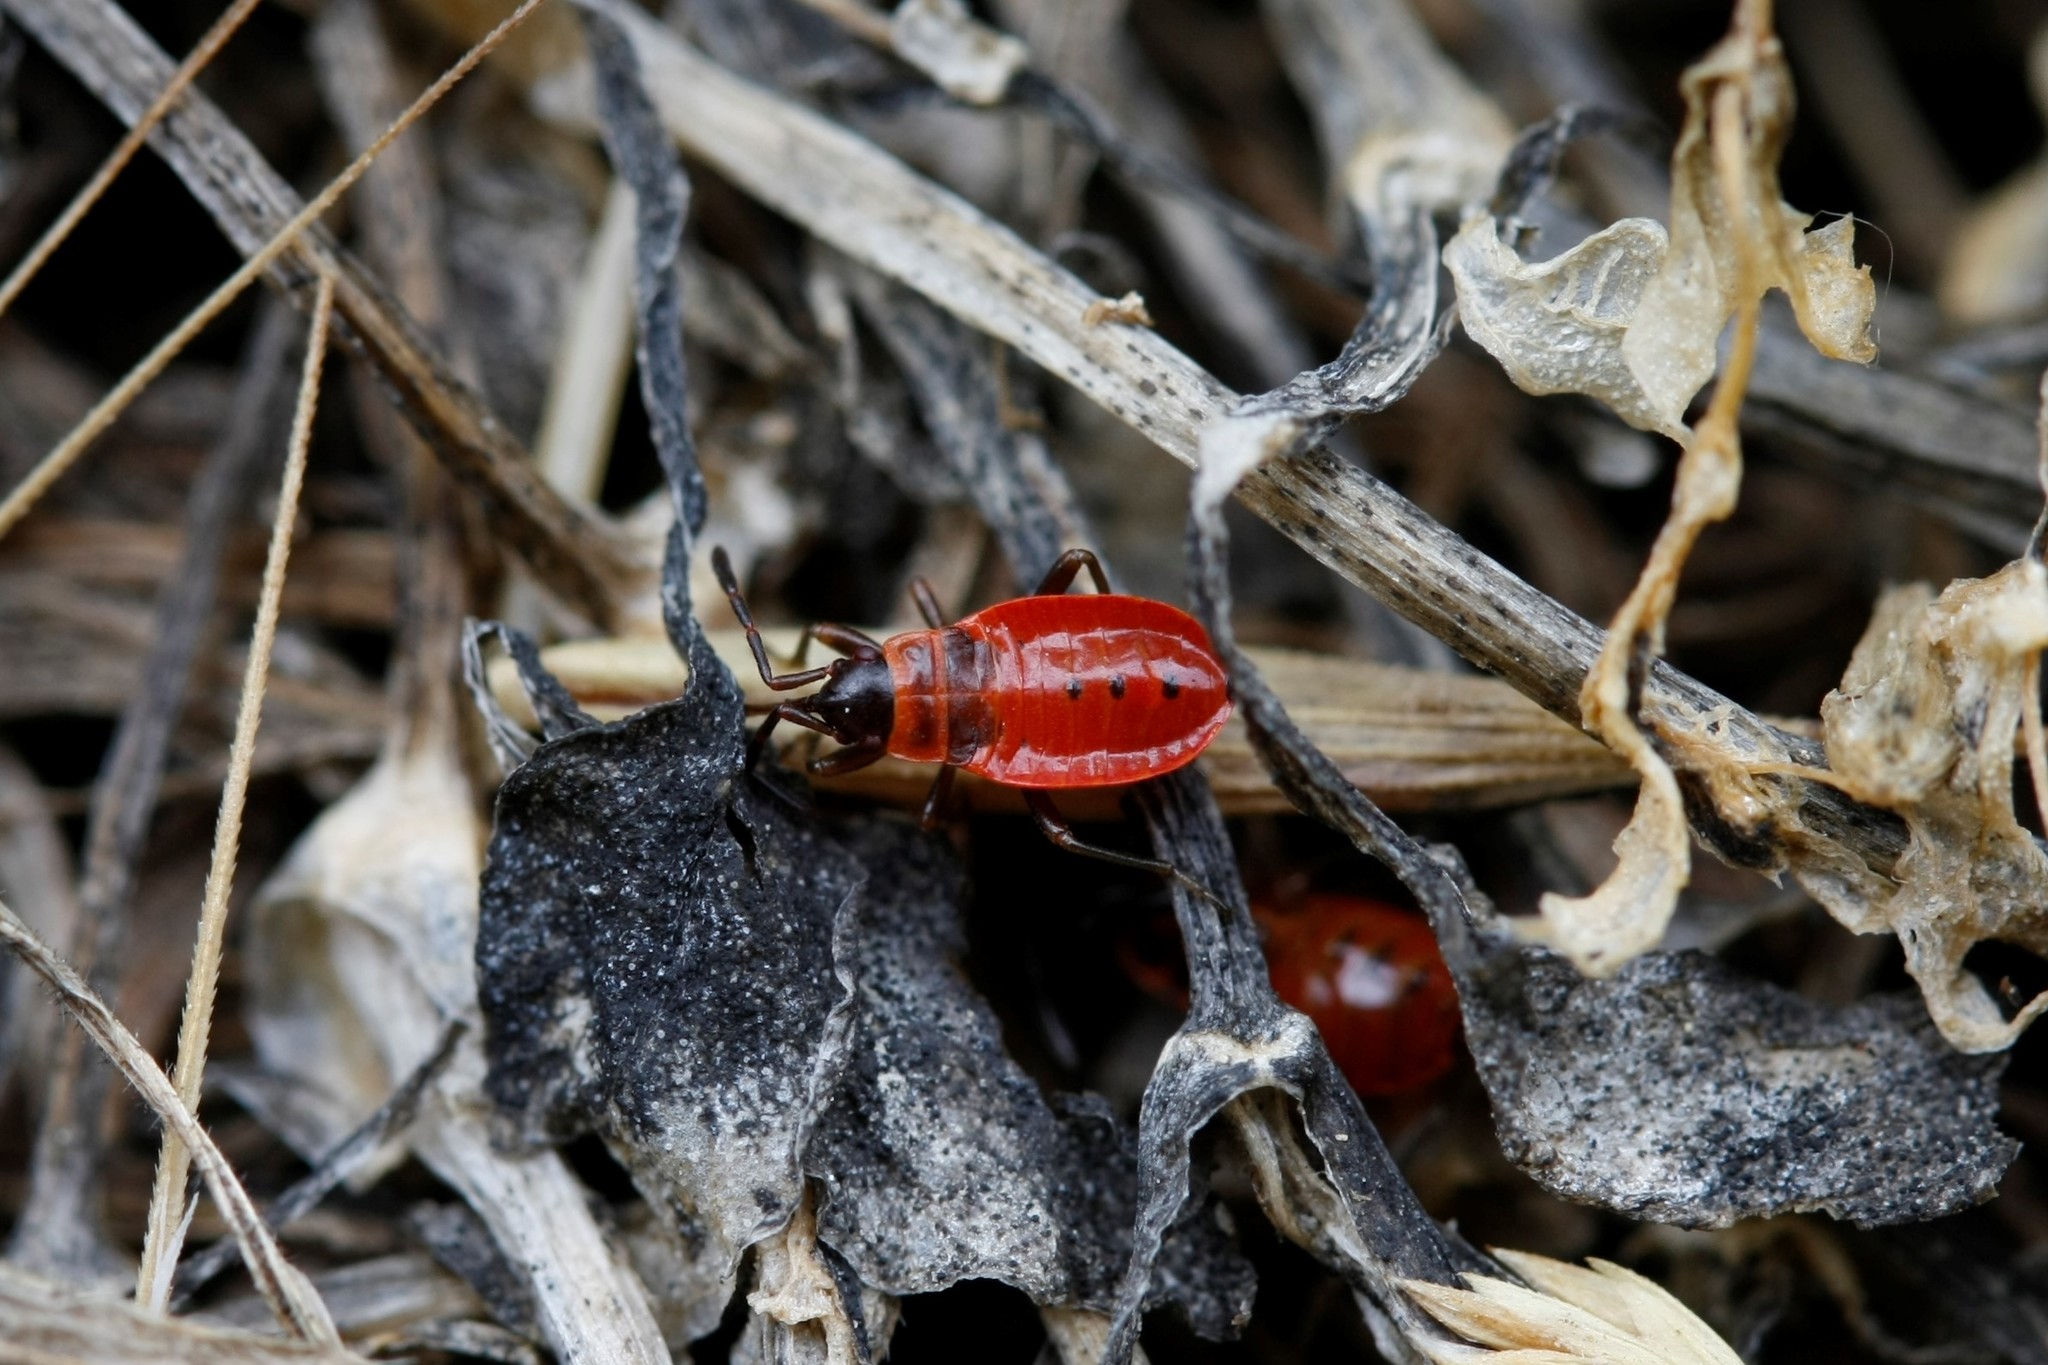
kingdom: Animalia
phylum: Arthropoda
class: Insecta
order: Hemiptera
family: Pyrrhocoridae
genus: Pyrrhocoris
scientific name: Pyrrhocoris apterus
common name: Firebug
